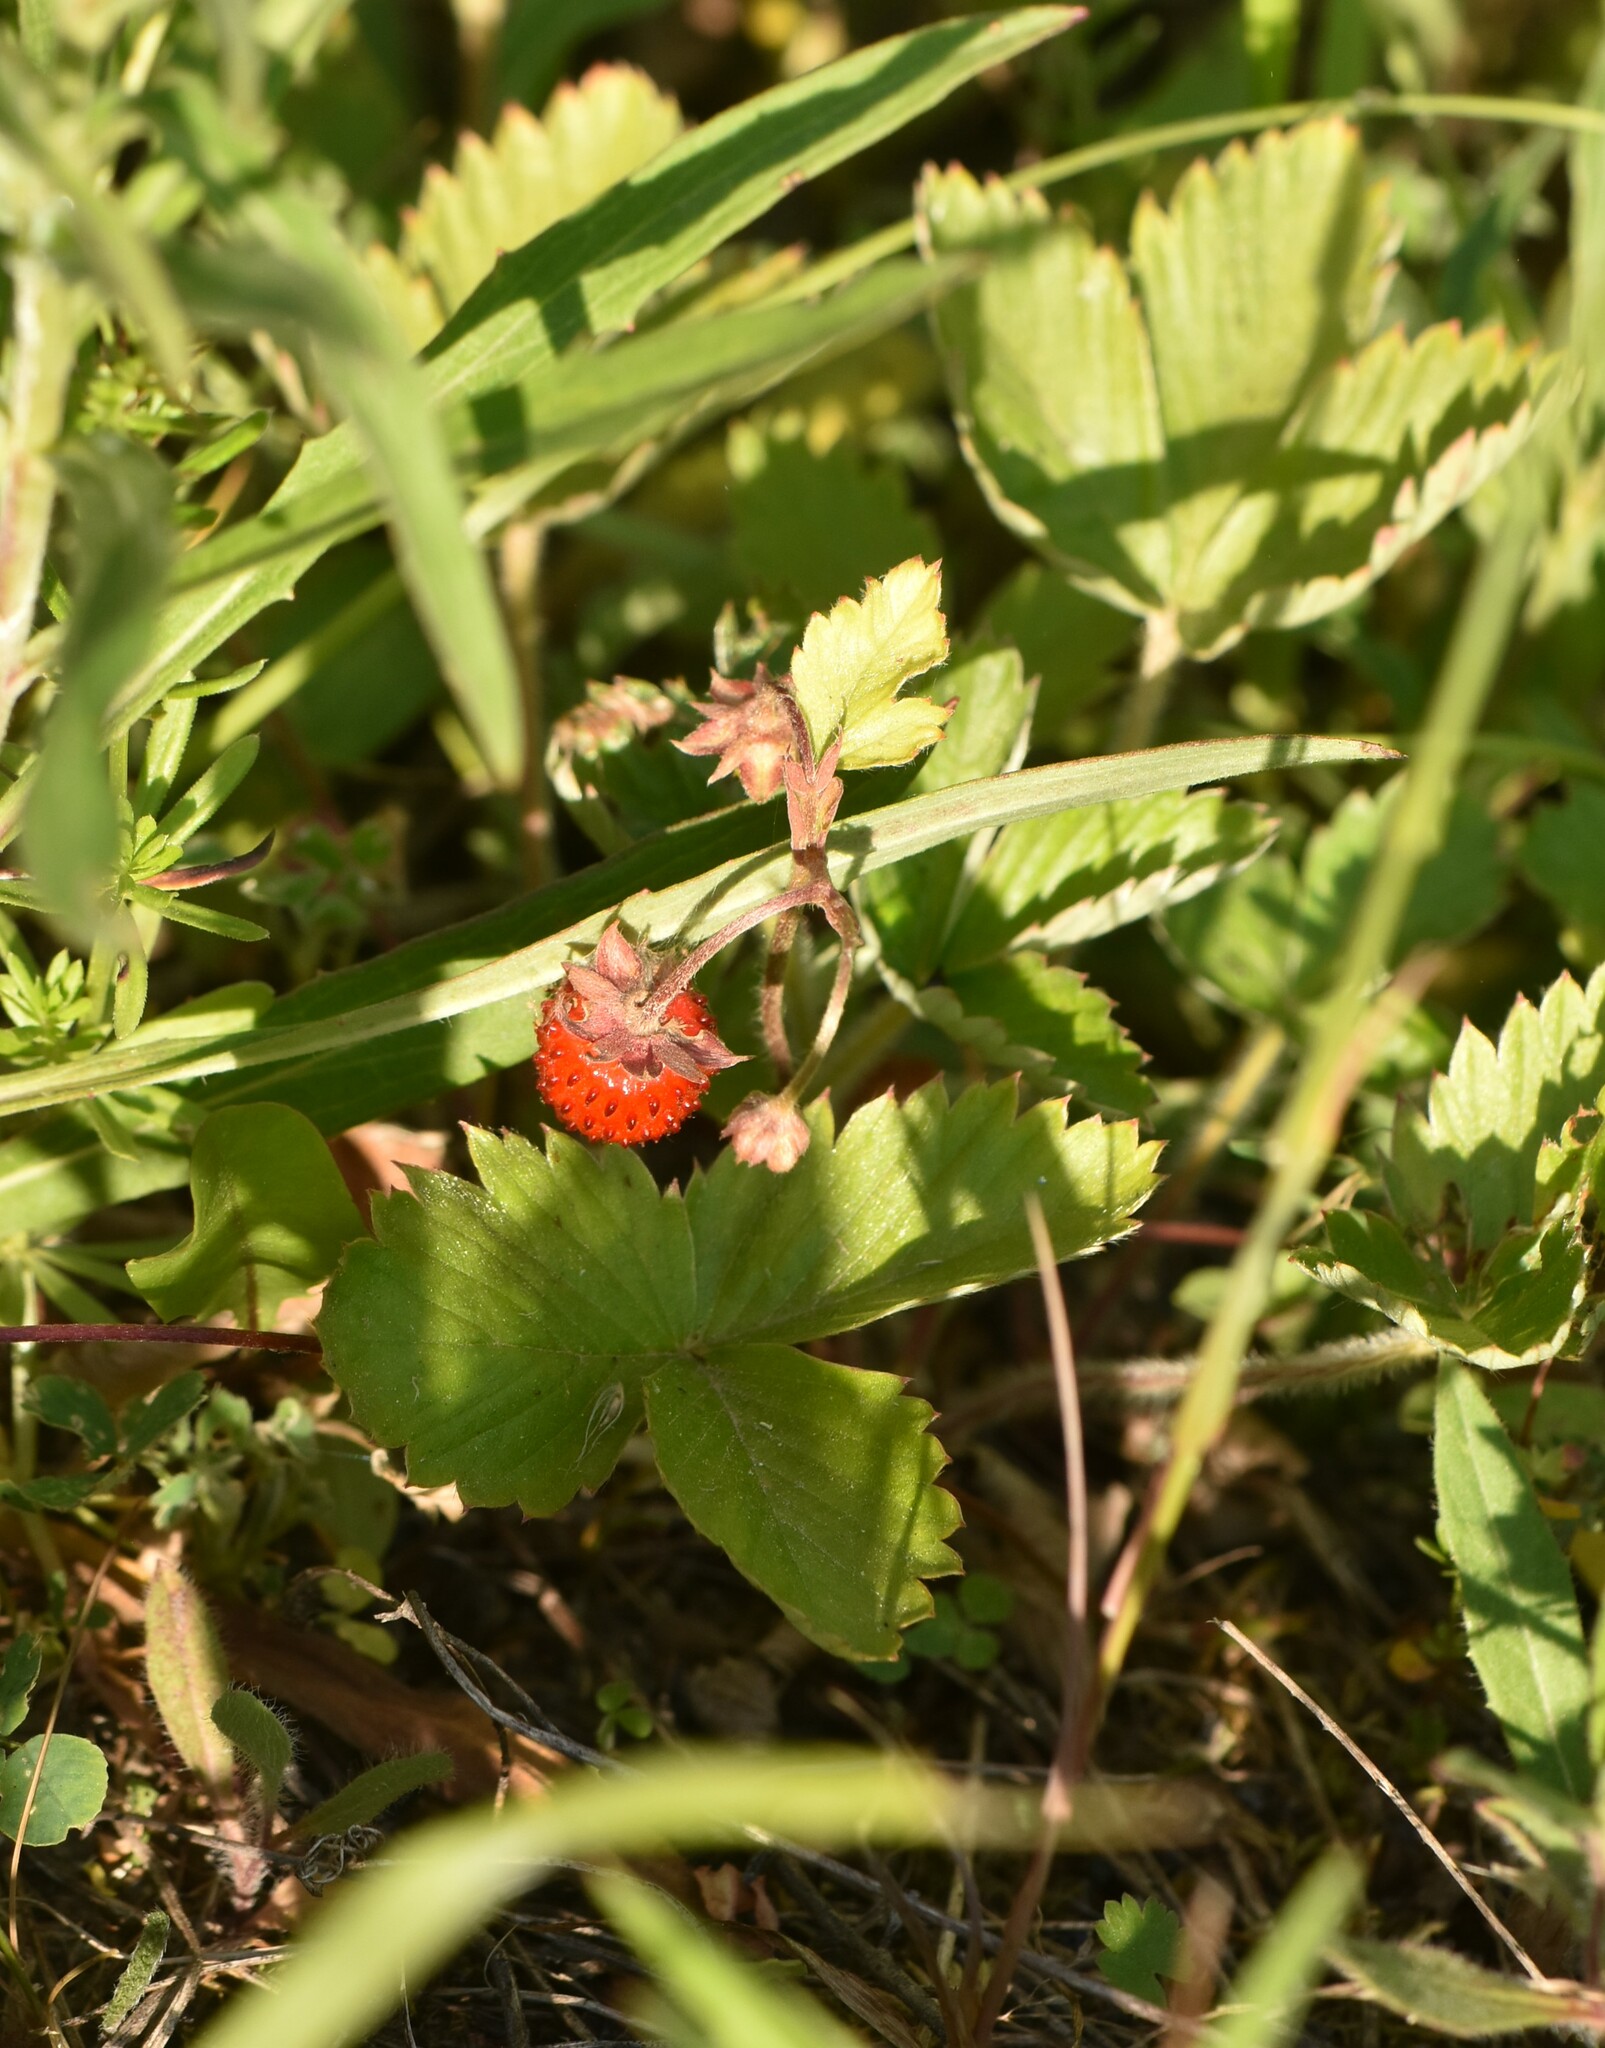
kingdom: Plantae
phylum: Tracheophyta
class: Magnoliopsida
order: Rosales
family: Rosaceae
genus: Fragaria
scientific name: Fragaria vesca
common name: Wild strawberry
